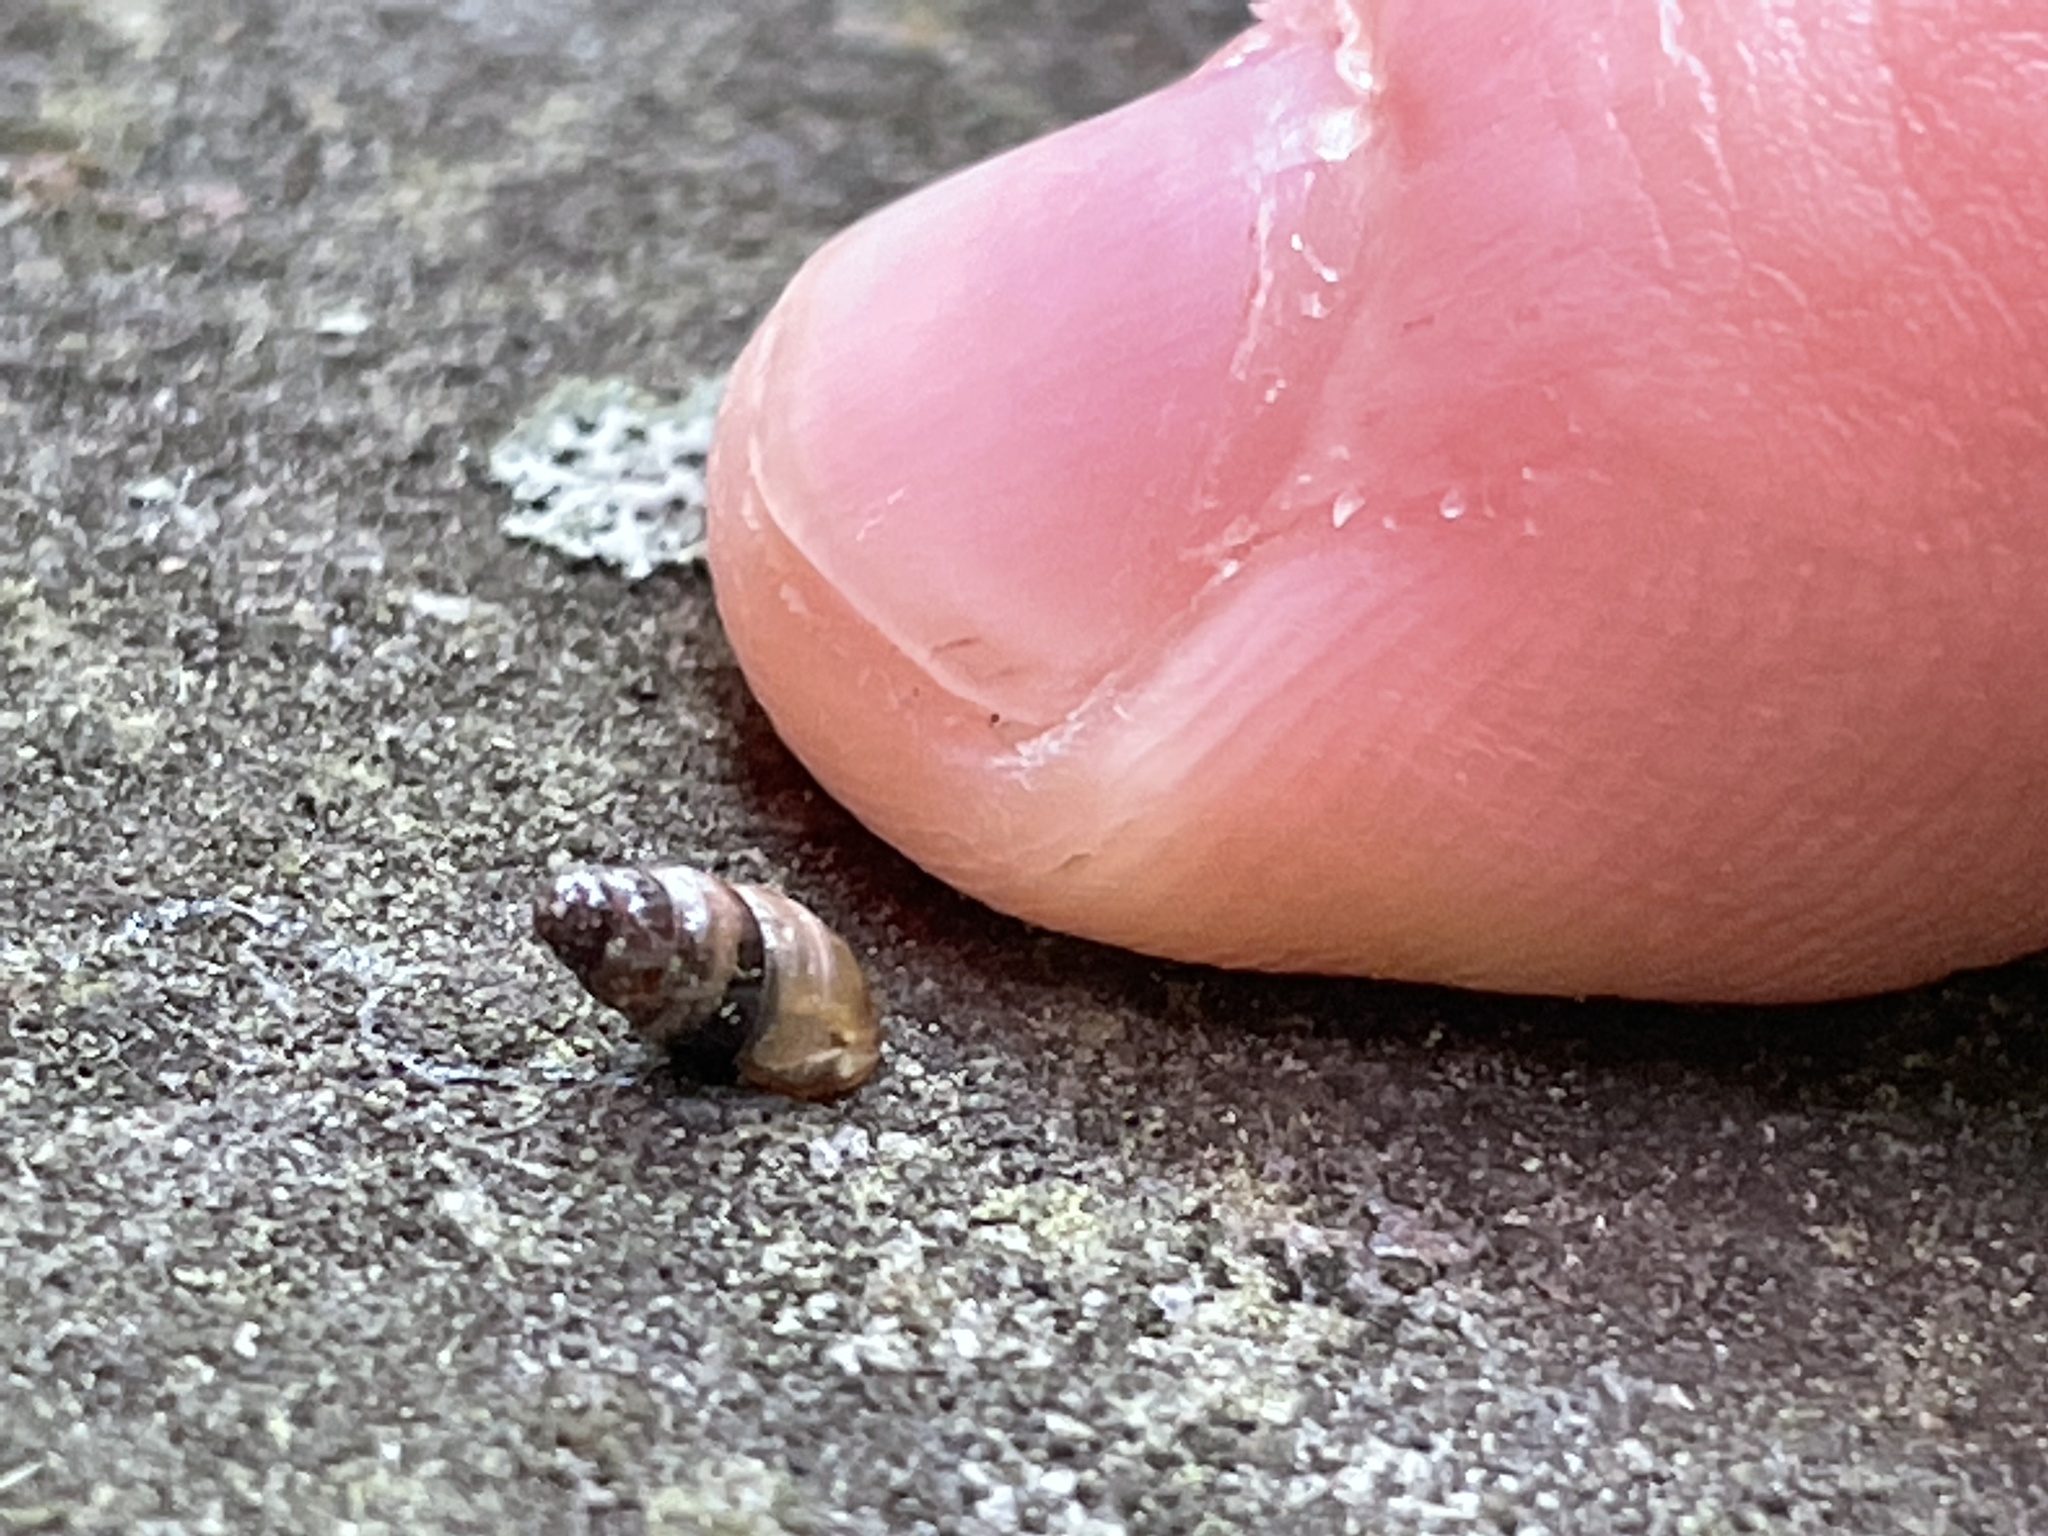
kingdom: Animalia
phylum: Mollusca
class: Gastropoda
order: Stylommatophora
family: Cochlicopidae
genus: Cochlicopa
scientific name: Cochlicopa lubrica
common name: Glossy pillar snail
